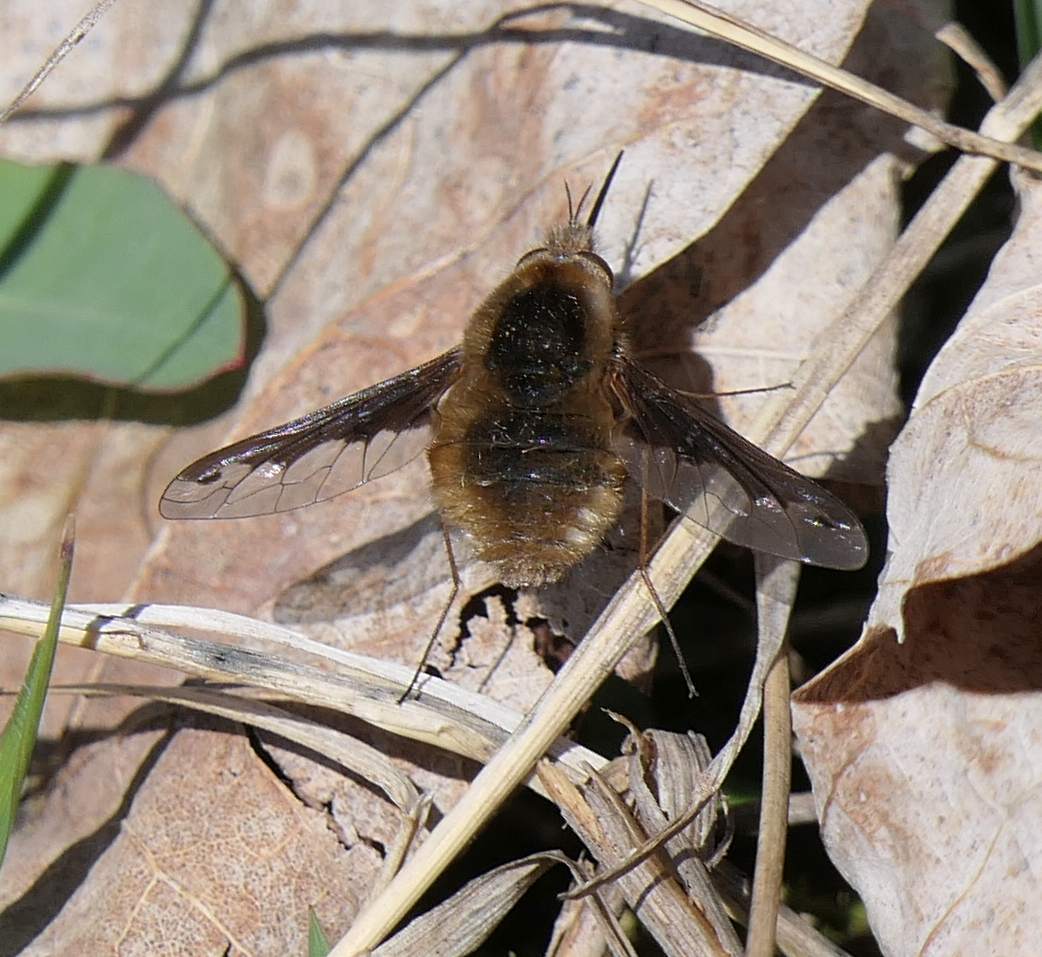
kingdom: Animalia
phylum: Arthropoda
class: Insecta
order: Diptera
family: Bombyliidae
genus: Bombylius
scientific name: Bombylius major
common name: Bee fly
